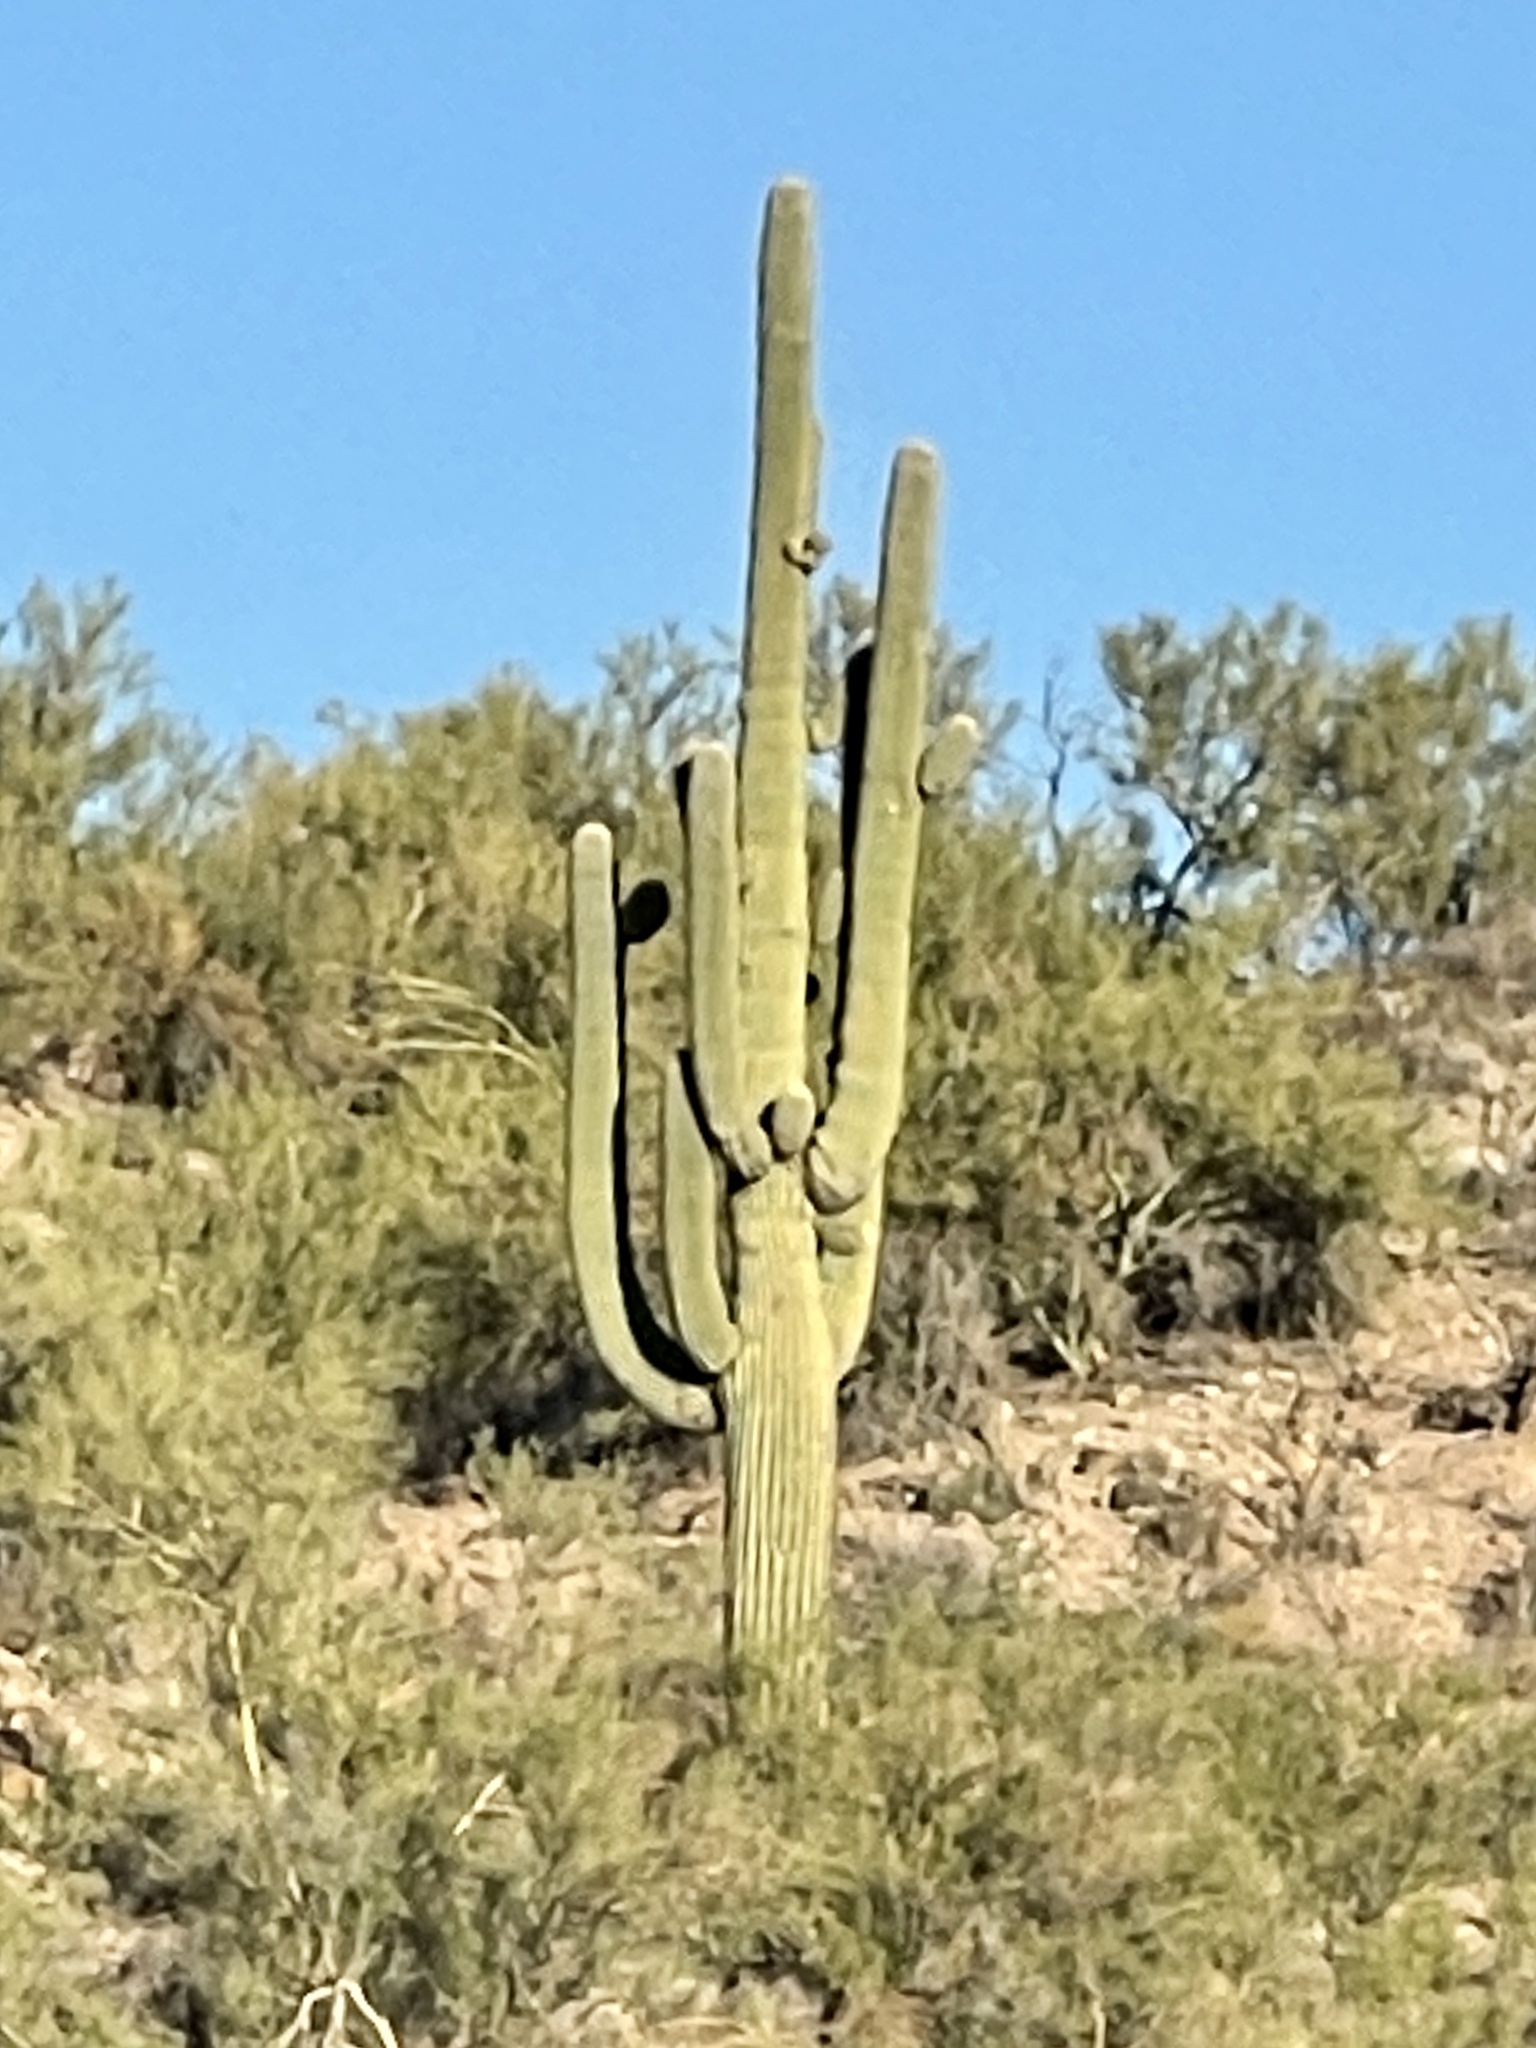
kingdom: Plantae
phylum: Tracheophyta
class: Magnoliopsida
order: Caryophyllales
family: Cactaceae
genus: Carnegiea
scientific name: Carnegiea gigantea
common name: Saguaro
